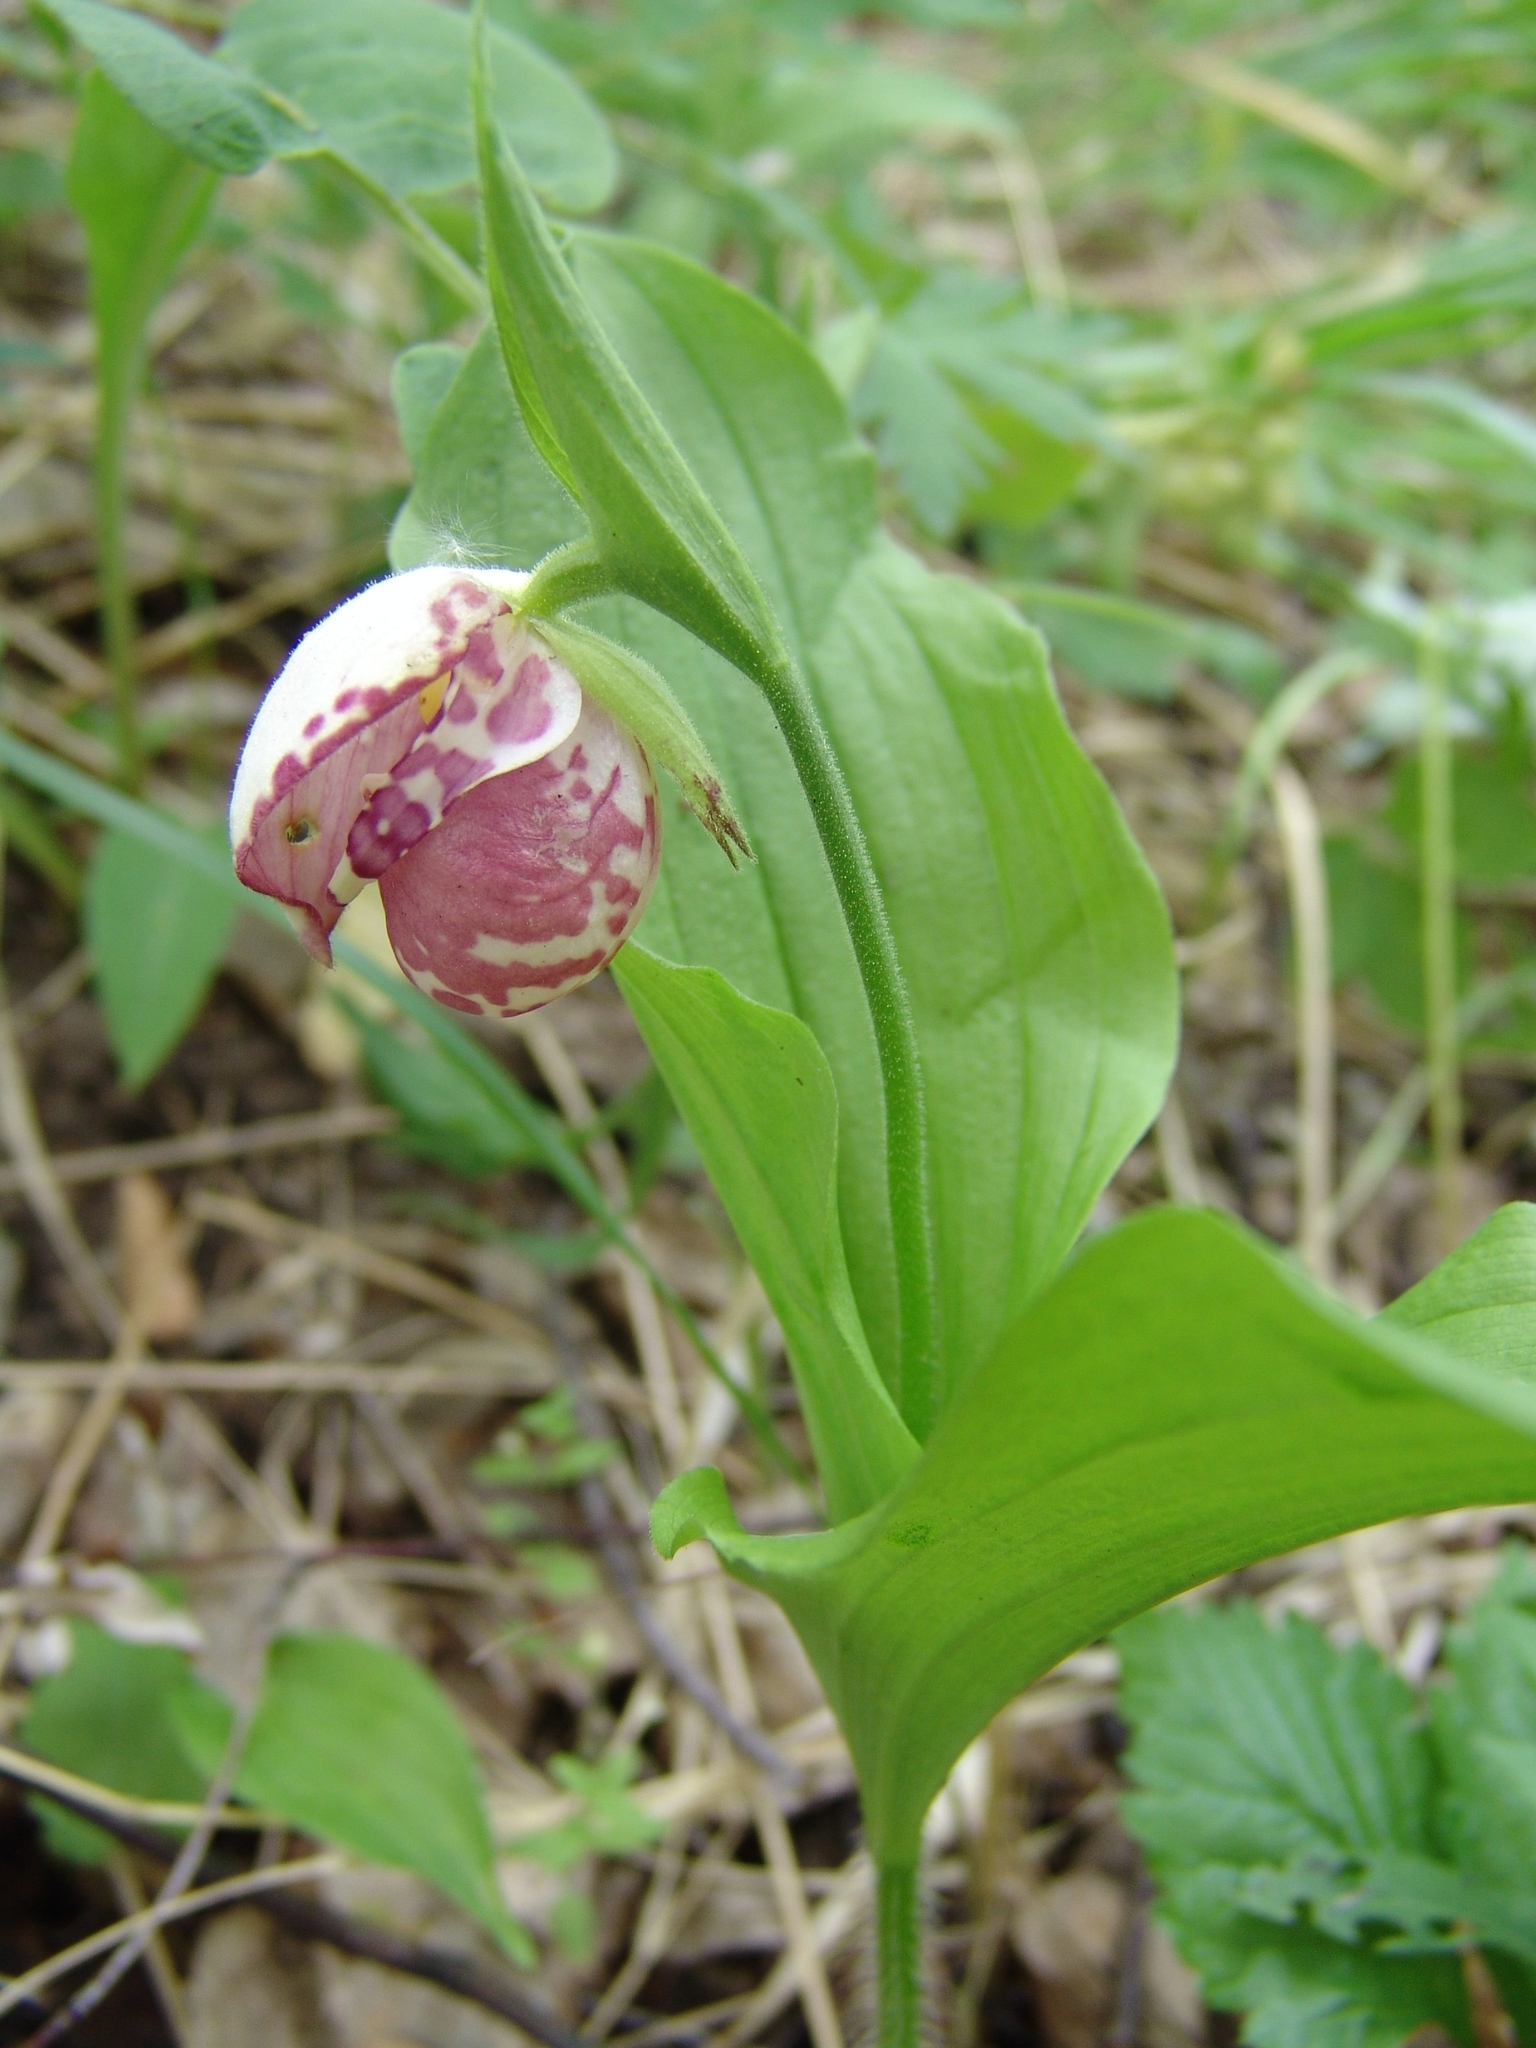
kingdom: Plantae
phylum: Tracheophyta
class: Liliopsida
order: Asparagales
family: Orchidaceae
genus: Cypripedium
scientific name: Cypripedium guttatum
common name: Pink lady slipper
